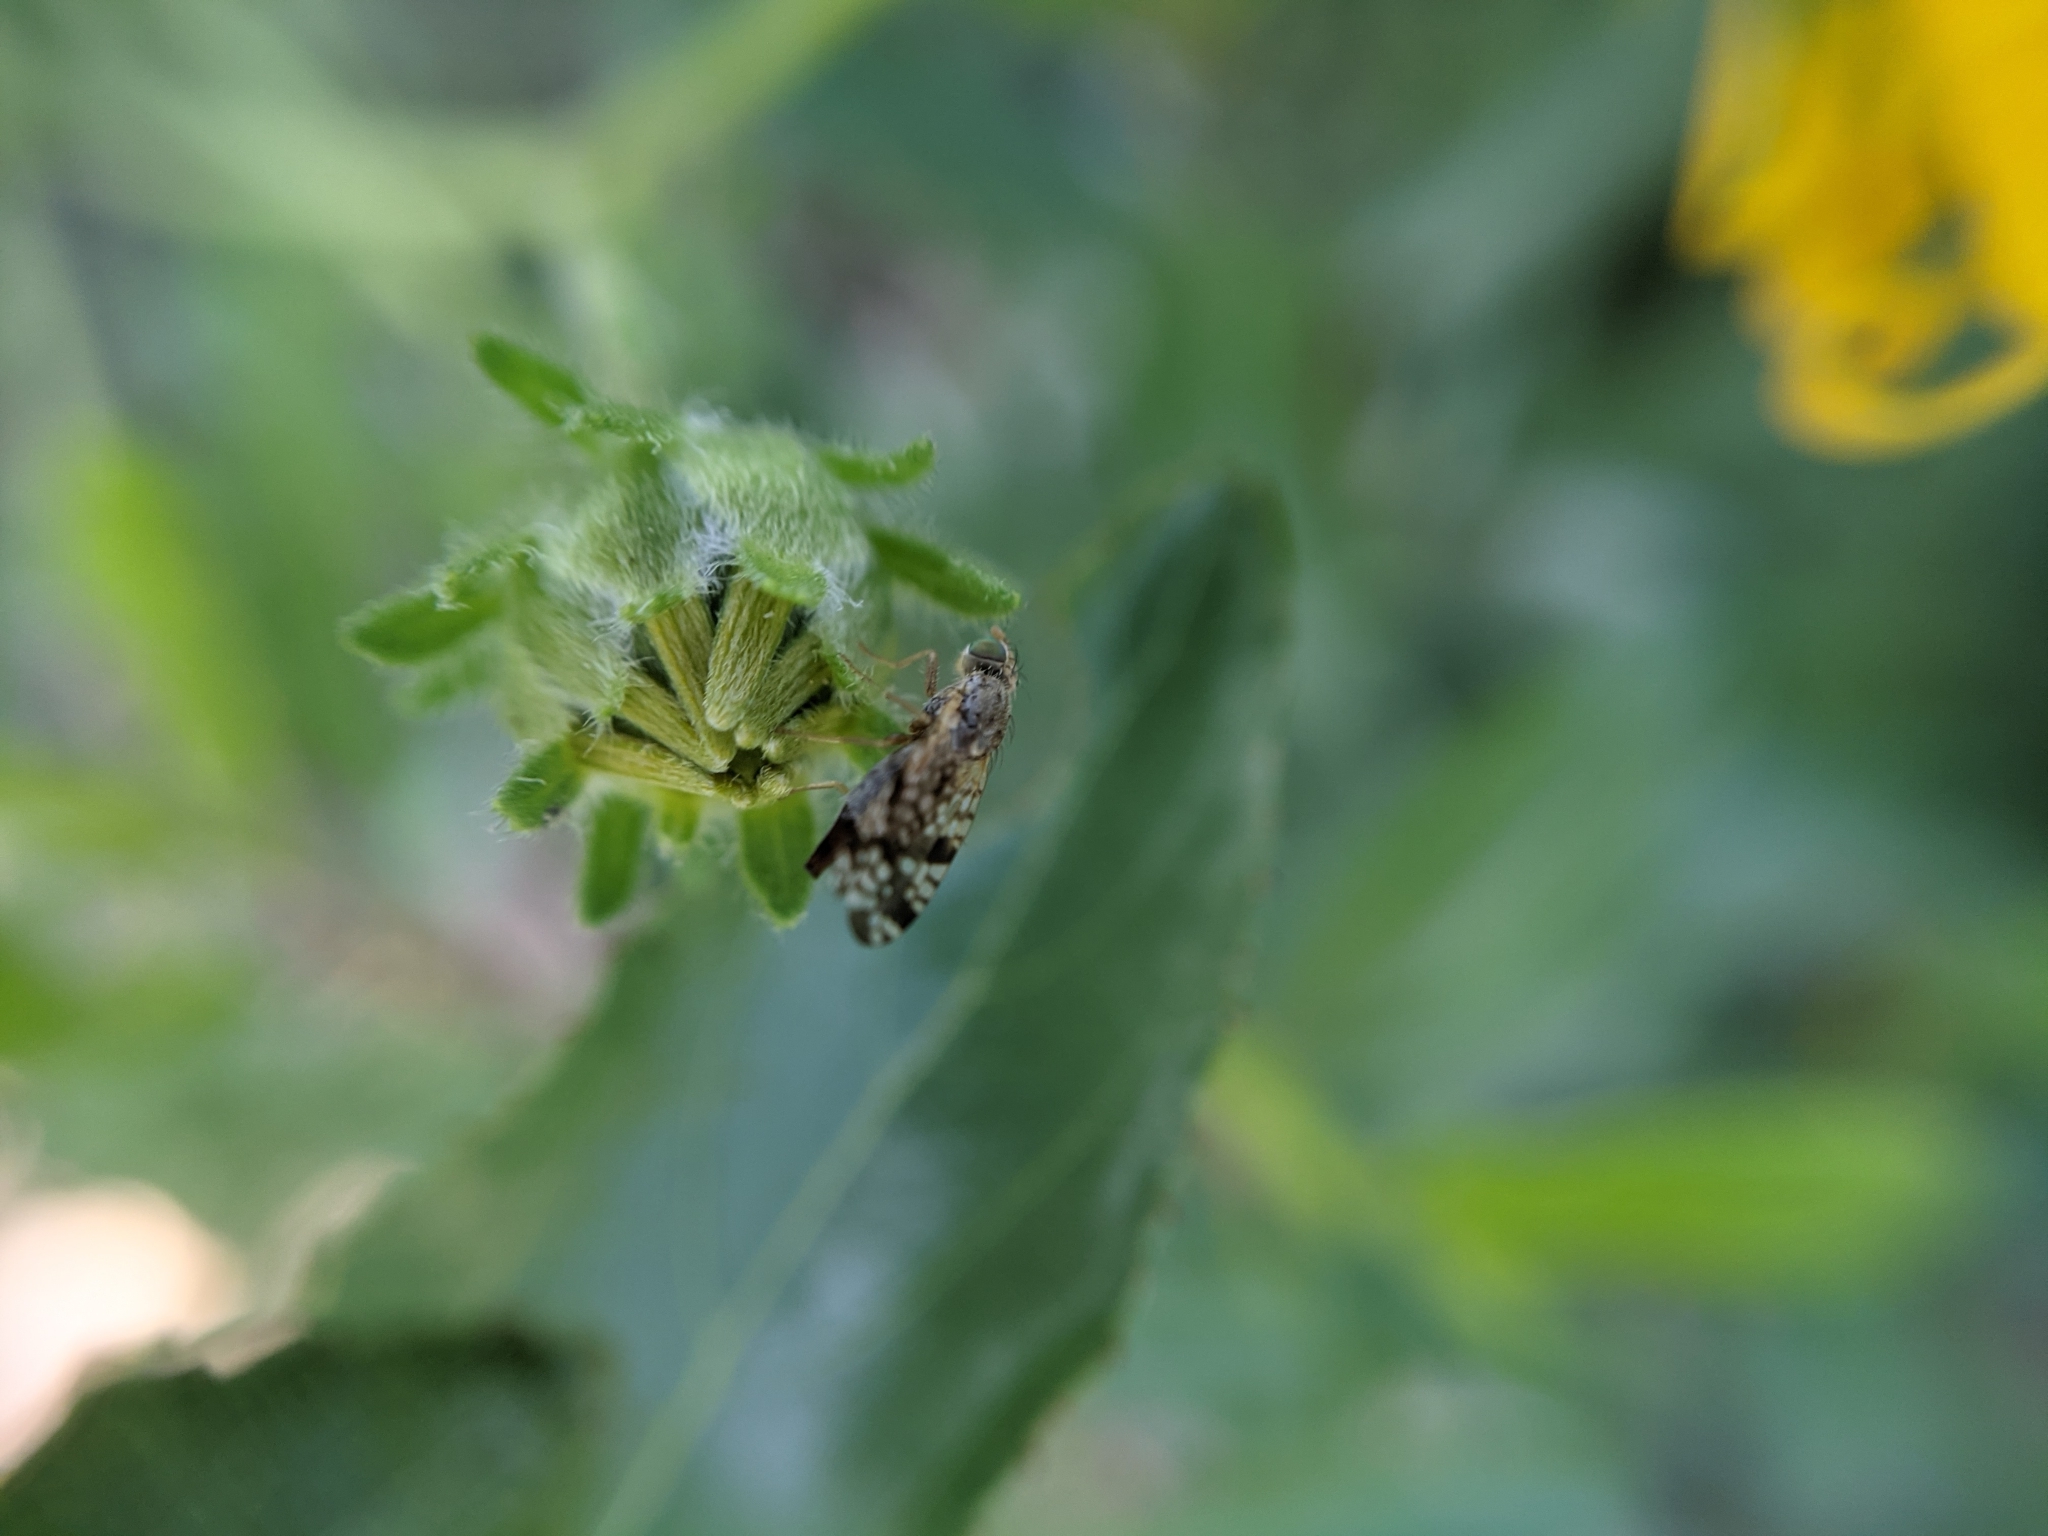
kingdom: Animalia
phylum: Arthropoda
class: Insecta
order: Diptera
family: Tephritidae
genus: Neotephritis
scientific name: Neotephritis finalis
